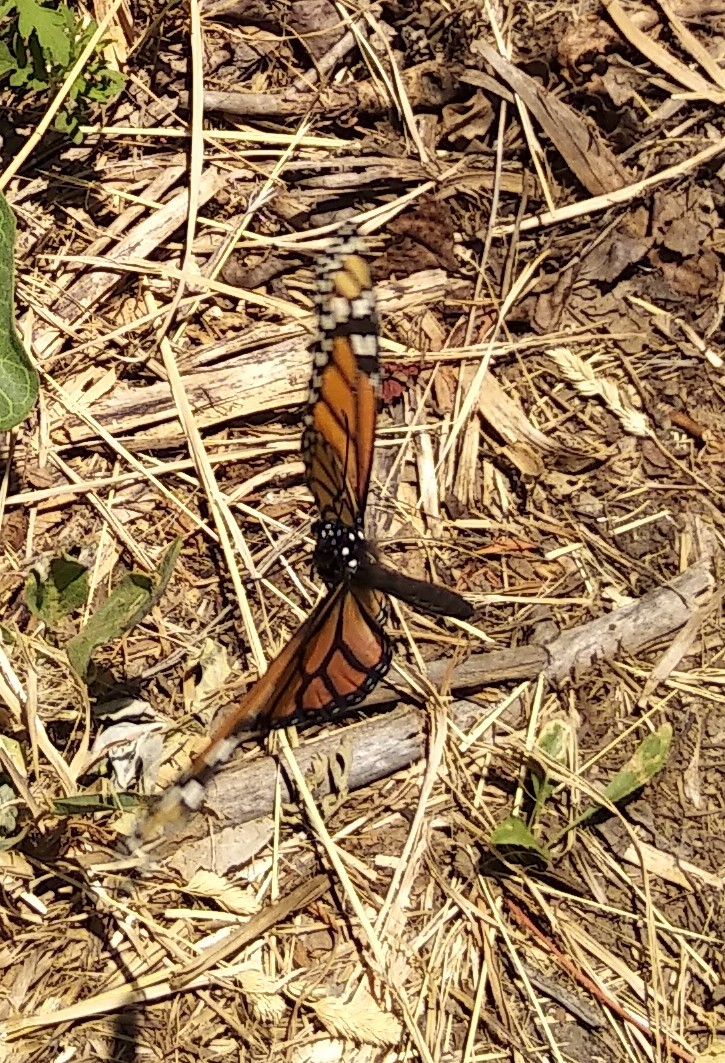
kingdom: Animalia
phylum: Arthropoda
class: Insecta
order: Lepidoptera
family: Nymphalidae
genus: Danaus
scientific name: Danaus plexippus
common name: Monarch
